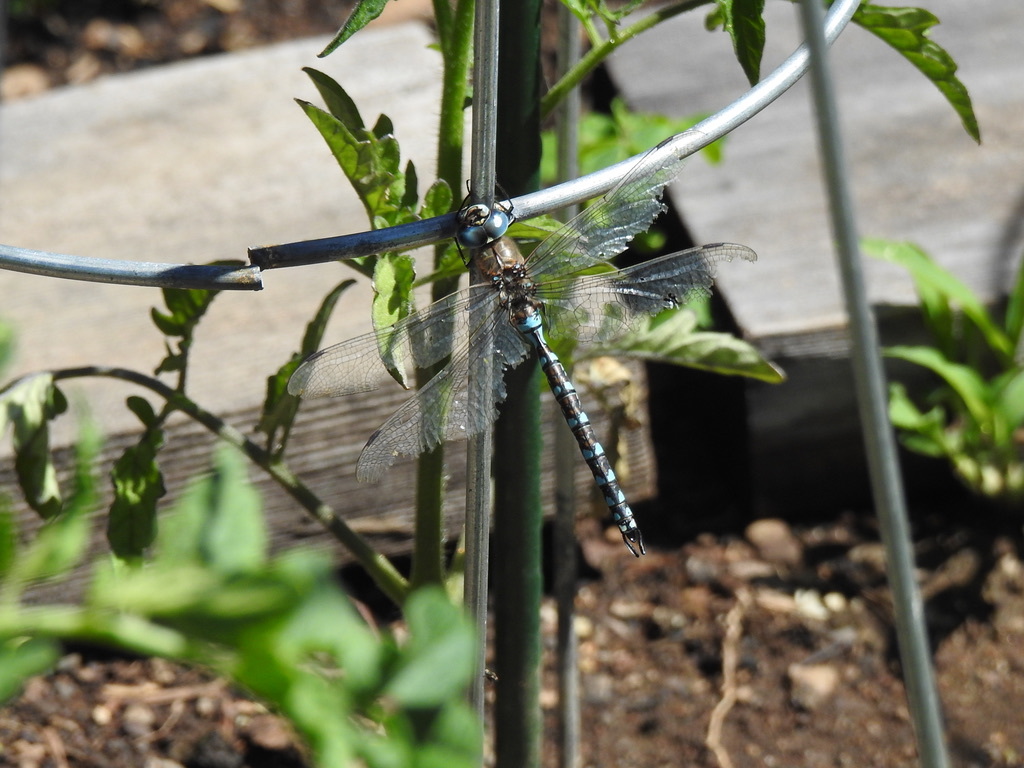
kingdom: Animalia
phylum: Arthropoda
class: Insecta
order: Odonata
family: Aeshnidae
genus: Rhionaeschna
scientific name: Rhionaeschna californica
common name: California darner
